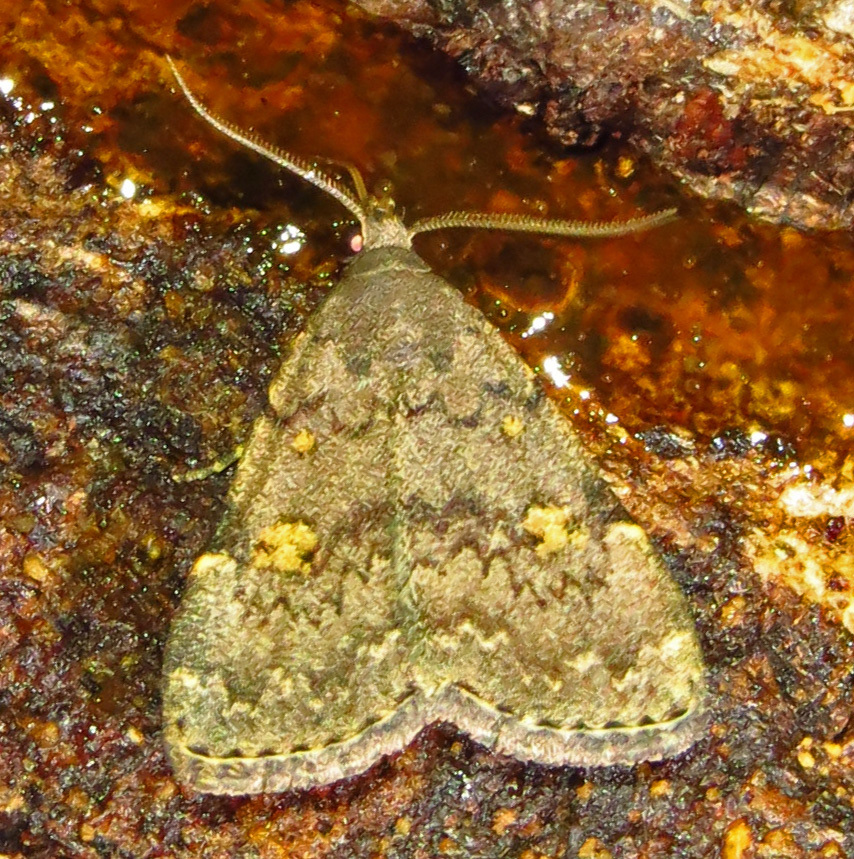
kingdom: Animalia
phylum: Arthropoda
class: Insecta
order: Lepidoptera
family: Erebidae
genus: Idia
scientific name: Idia aemula
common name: Common idia moth
